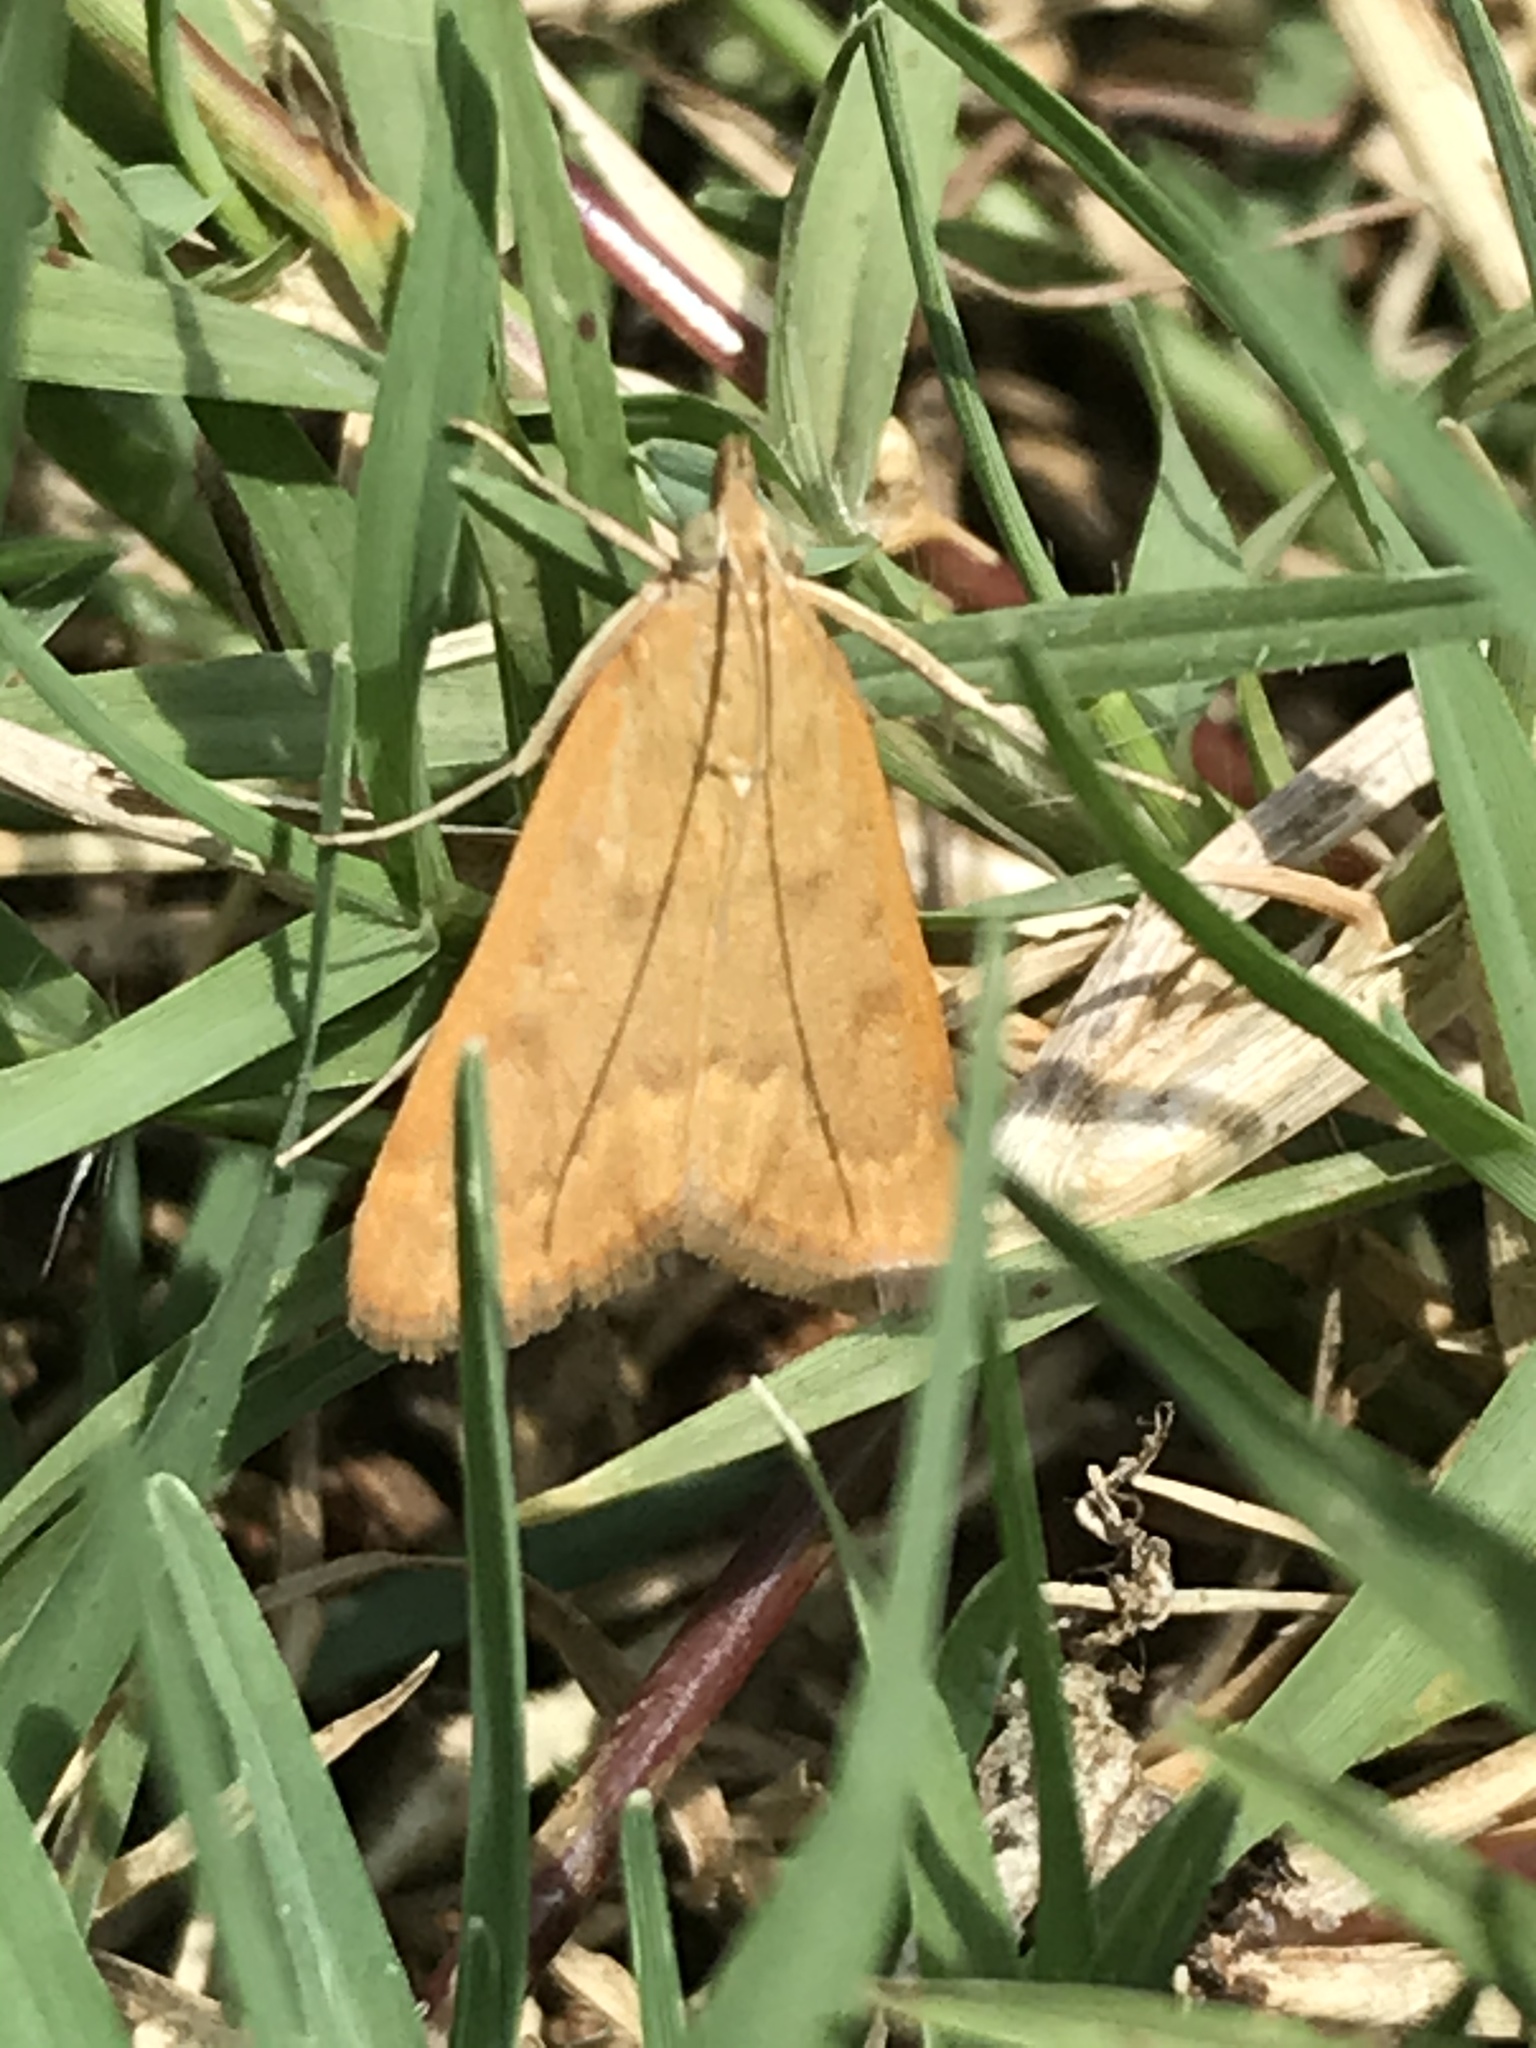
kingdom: Animalia
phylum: Arthropoda
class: Insecta
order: Lepidoptera
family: Crambidae
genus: Achyra
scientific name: Achyra rantalis
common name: Garden webworm
